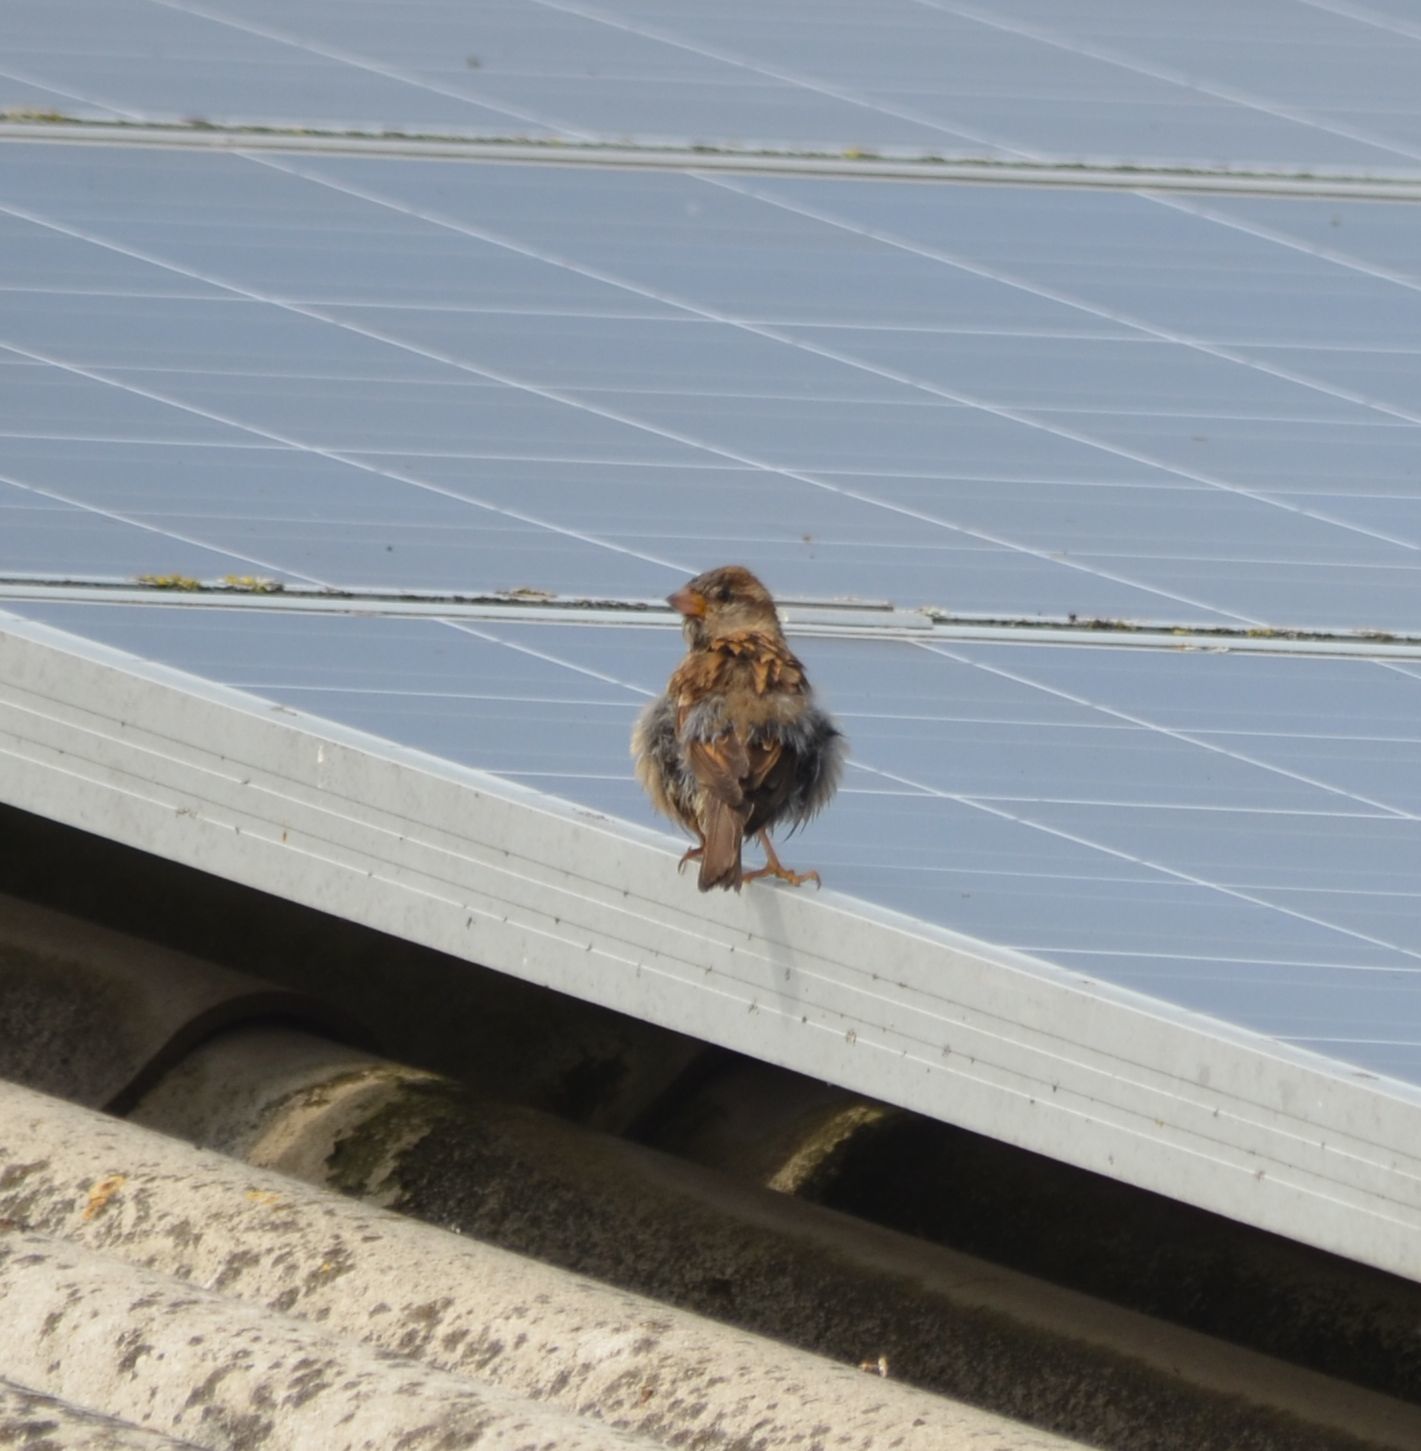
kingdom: Animalia
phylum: Chordata
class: Aves
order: Passeriformes
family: Passeridae
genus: Passer
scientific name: Passer domesticus
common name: House sparrow
